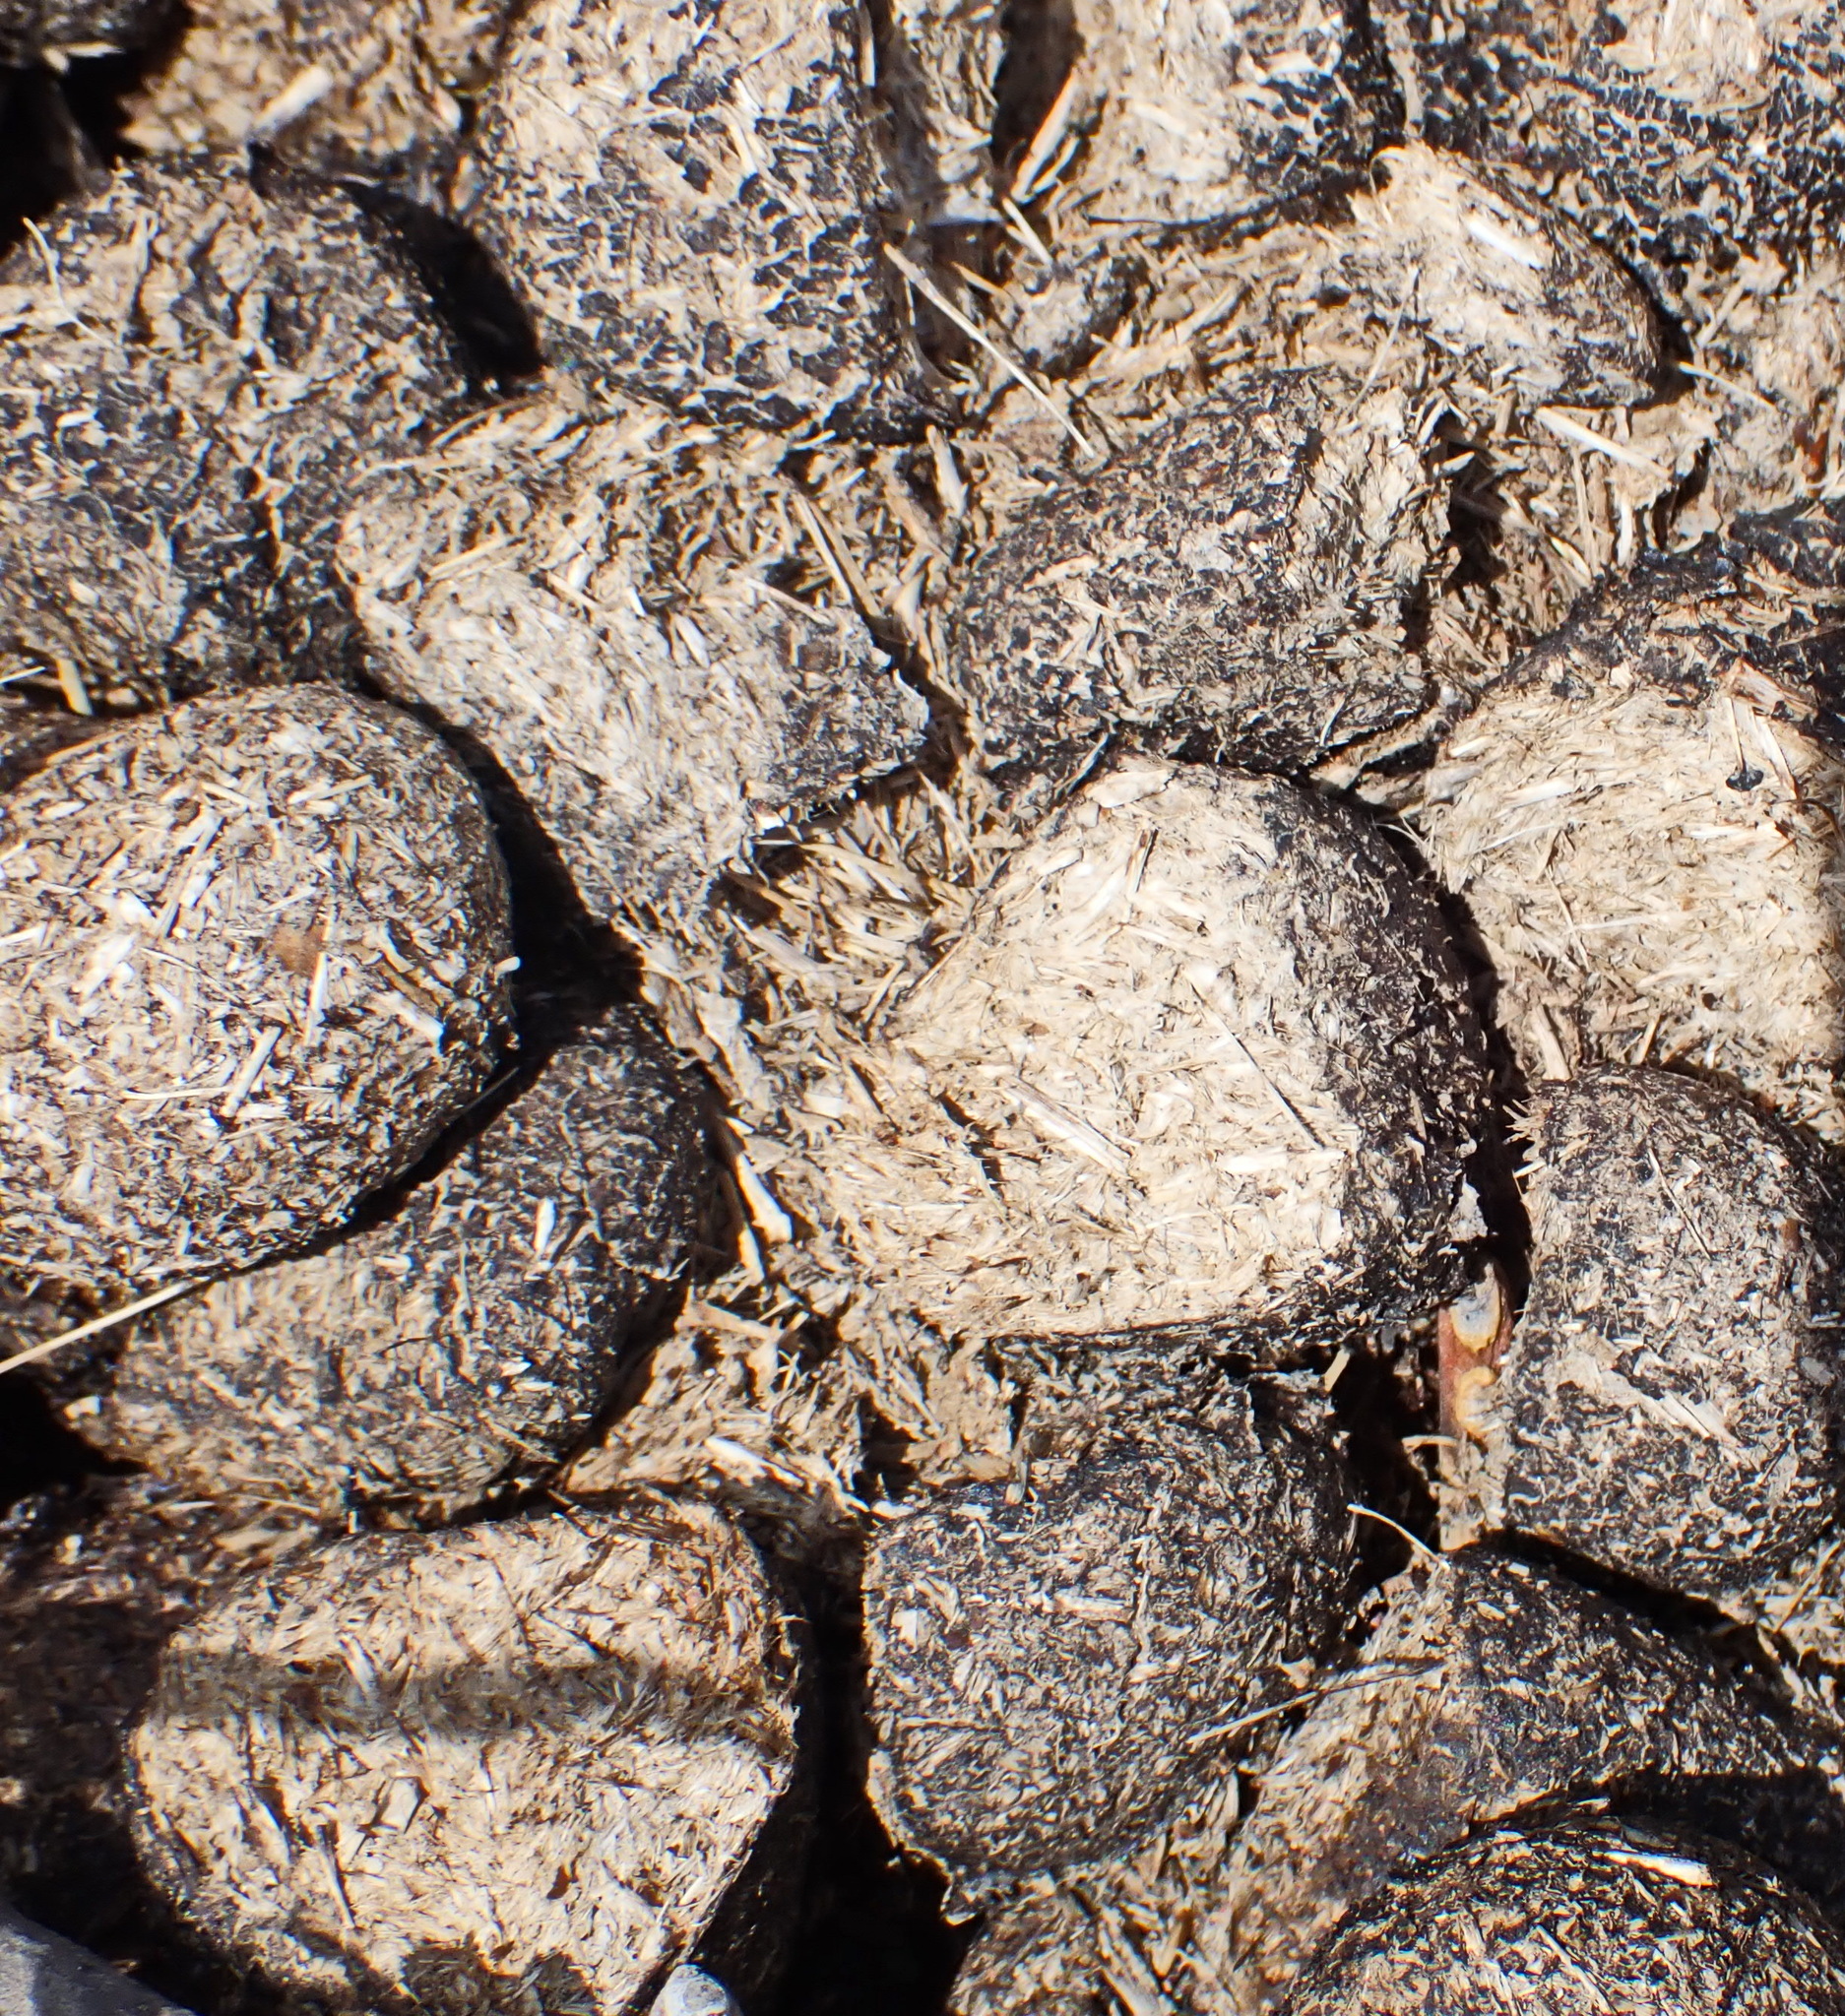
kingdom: Animalia
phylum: Chordata
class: Mammalia
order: Perissodactyla
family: Equidae
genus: Equus
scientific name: Equus zebra
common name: Mountain zebra
